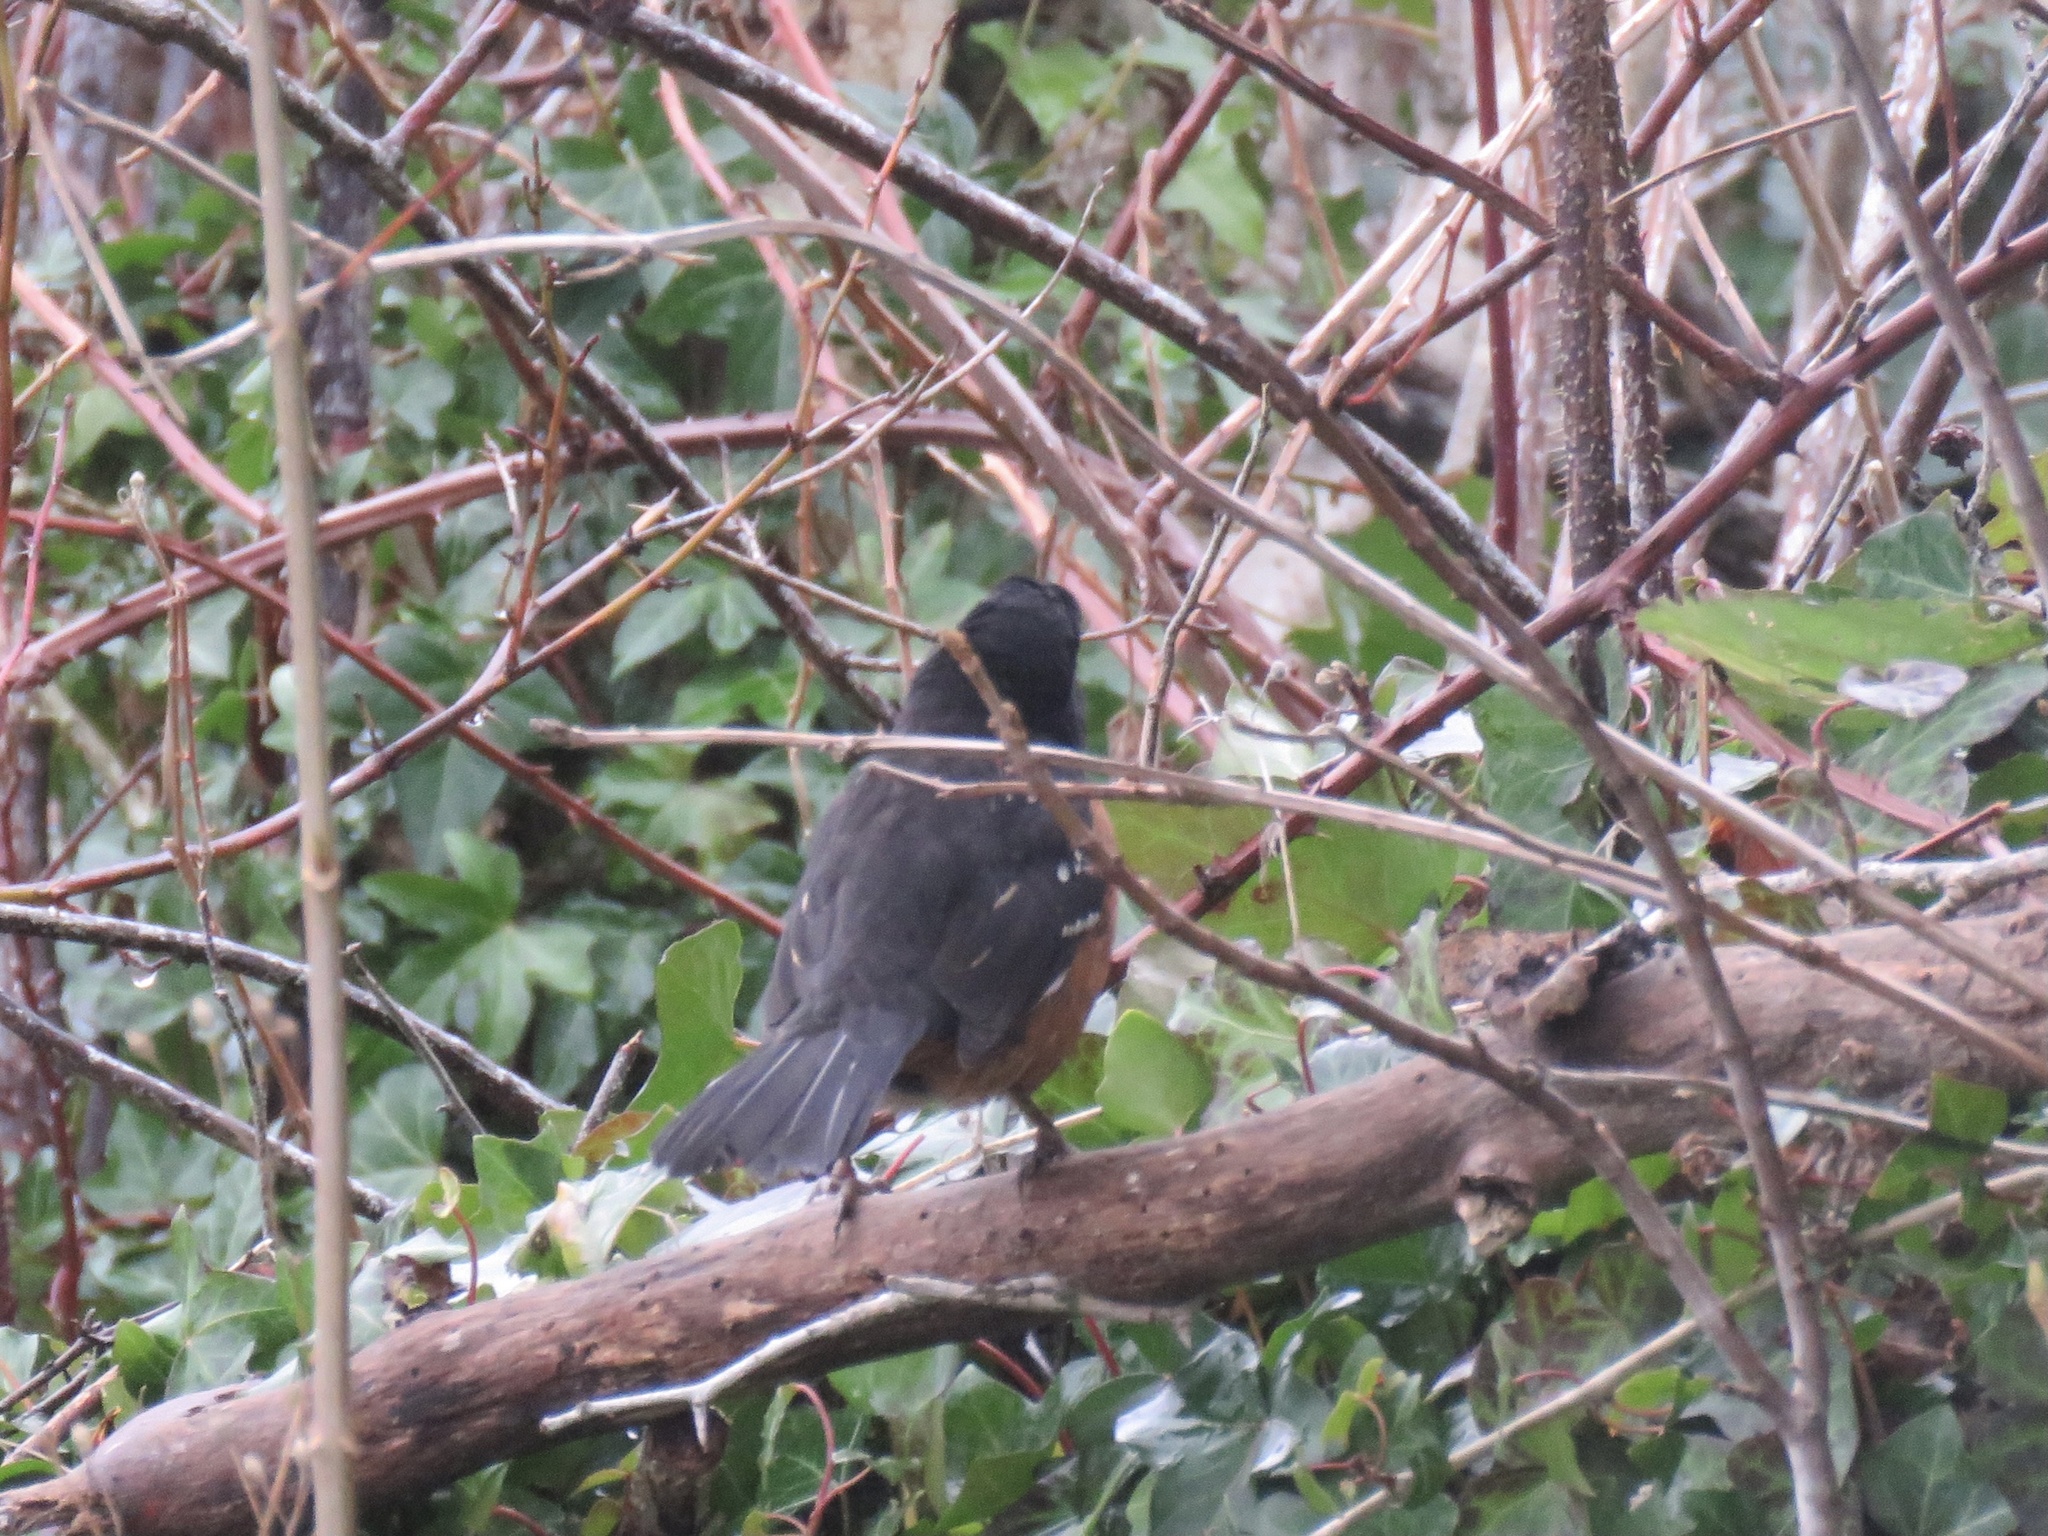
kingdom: Animalia
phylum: Chordata
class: Aves
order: Passeriformes
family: Passerellidae
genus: Pipilo
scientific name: Pipilo maculatus
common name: Spotted towhee
